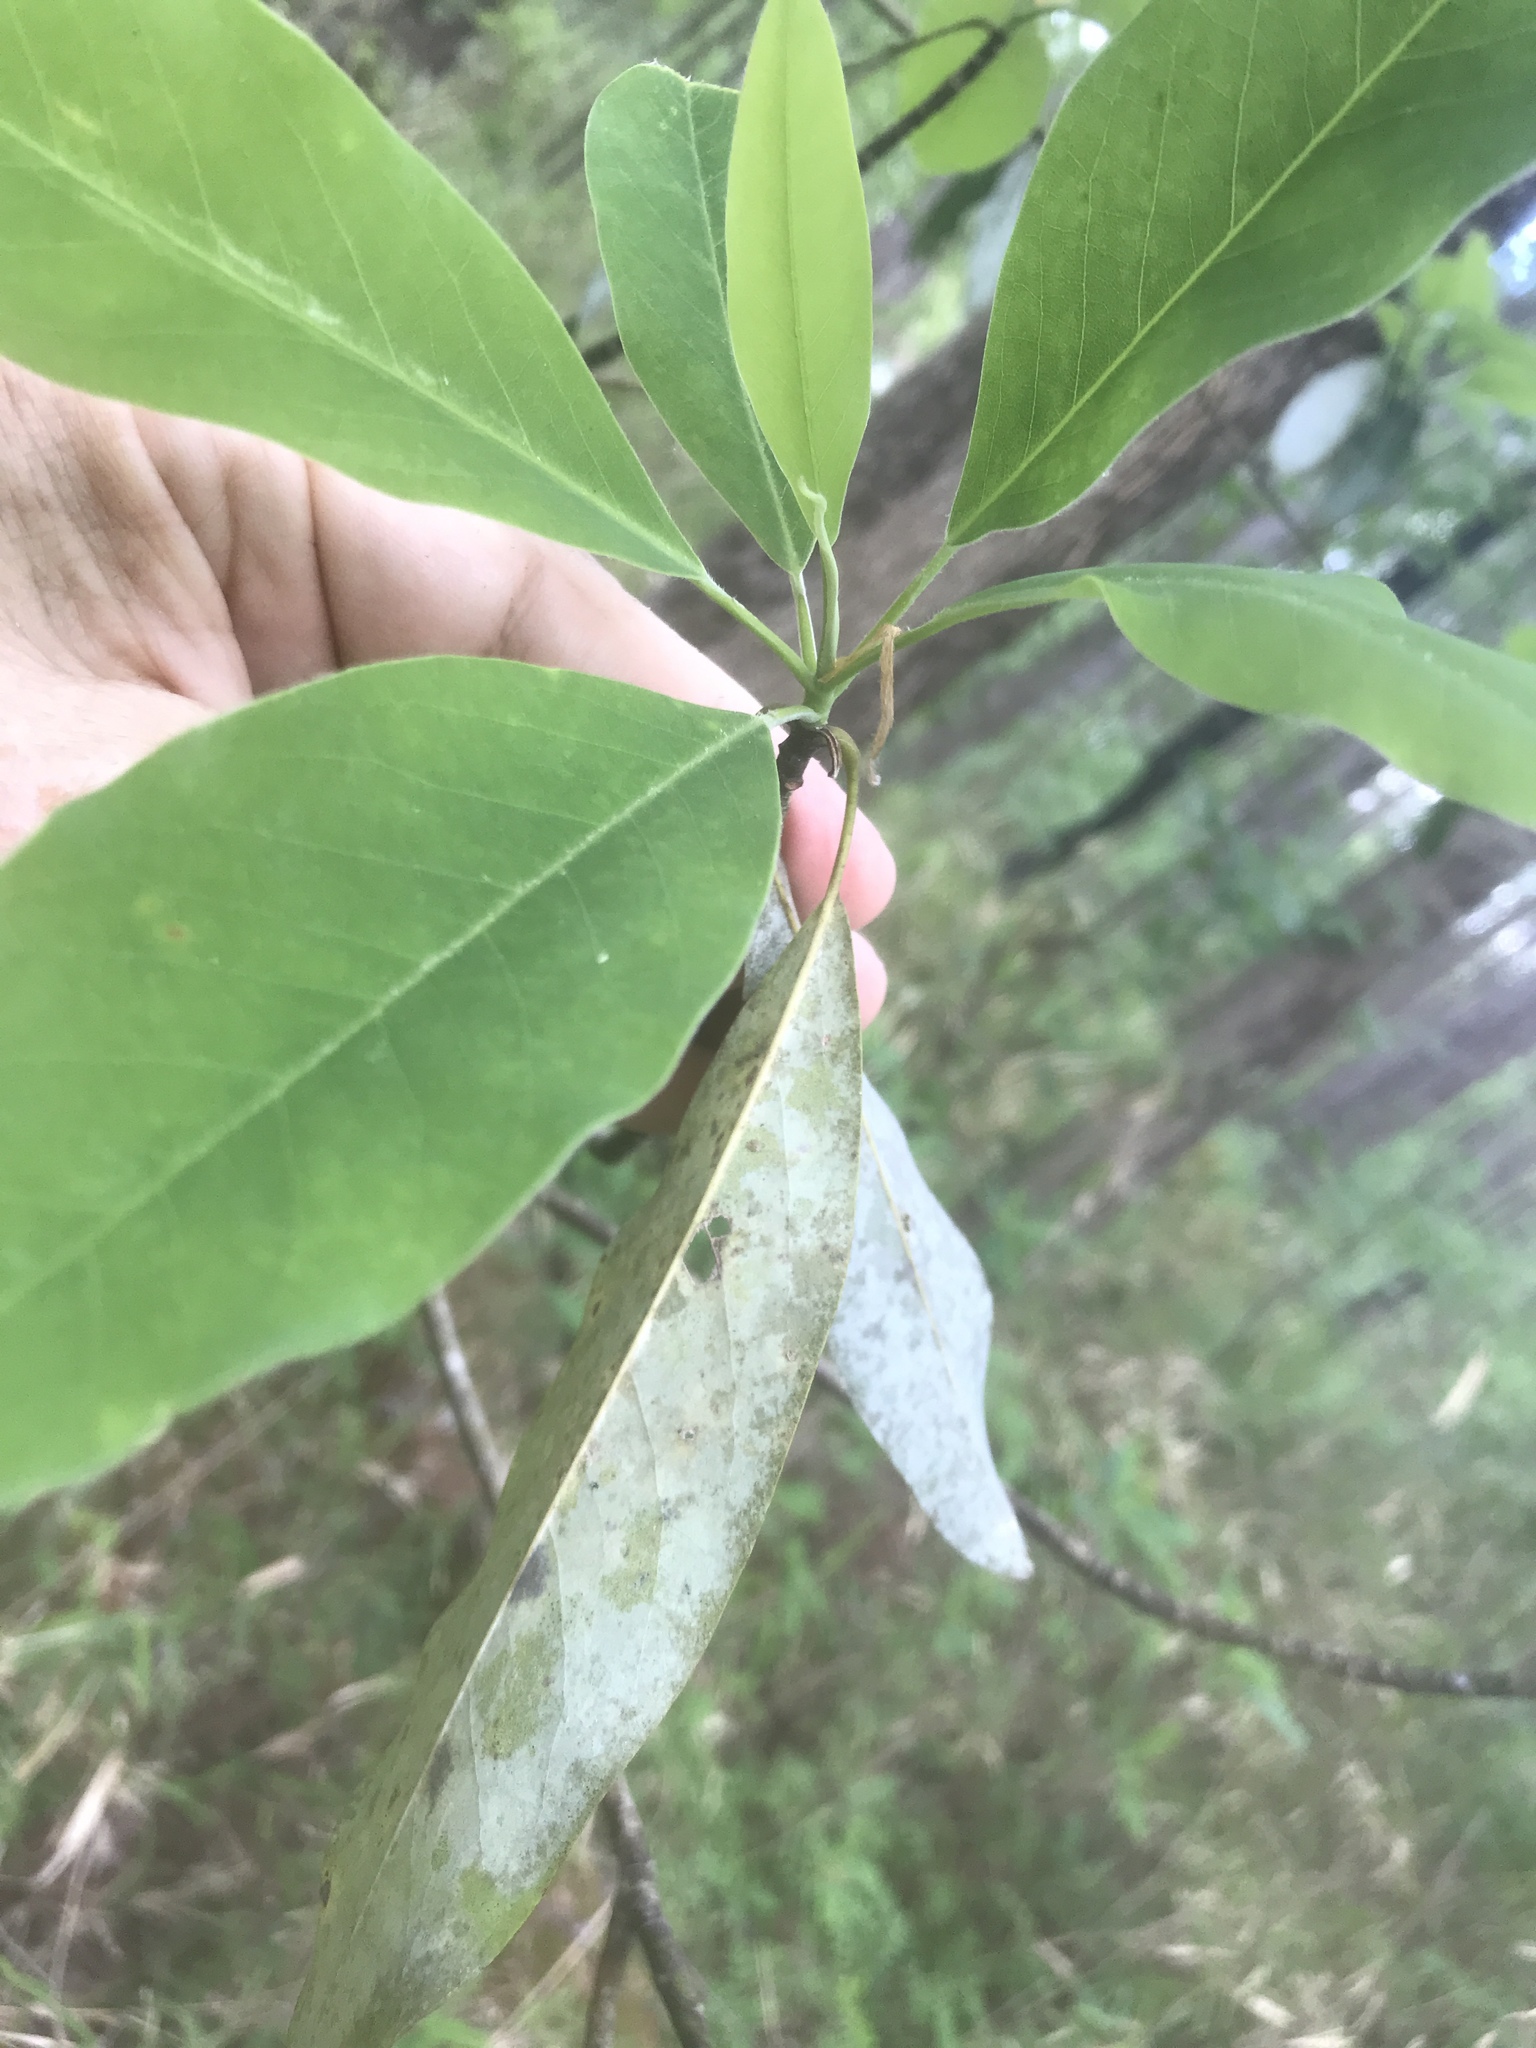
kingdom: Plantae
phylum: Tracheophyta
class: Magnoliopsida
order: Magnoliales
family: Magnoliaceae
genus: Magnolia
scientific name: Magnolia virginiana
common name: Swamp bay
